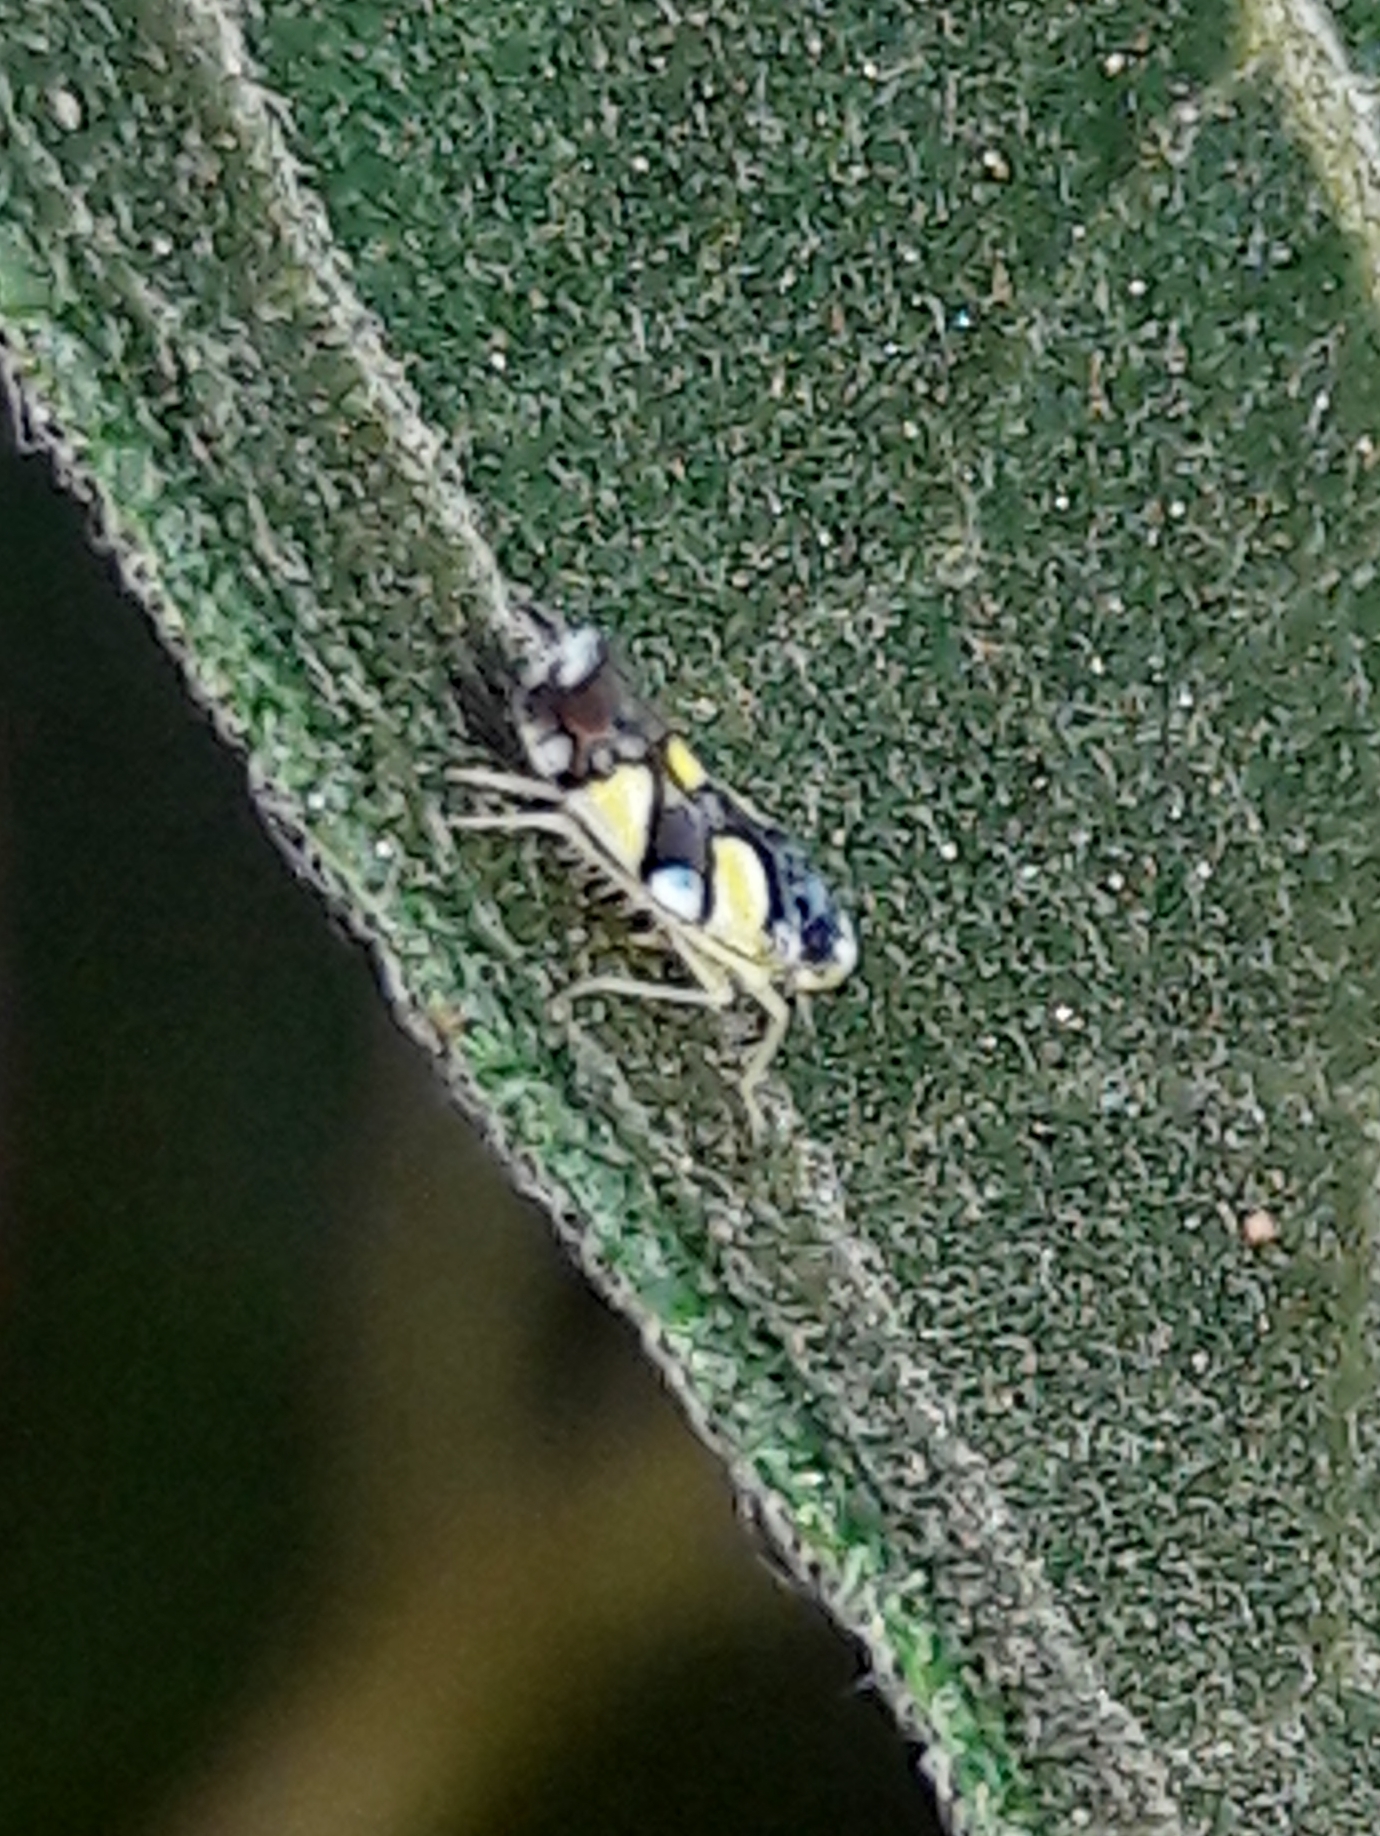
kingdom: Animalia
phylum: Arthropoda
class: Insecta
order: Hemiptera
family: Cicadellidae
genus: Protalebrella
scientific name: Protalebrella brasiliensis
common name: Brasilian leafhopper
